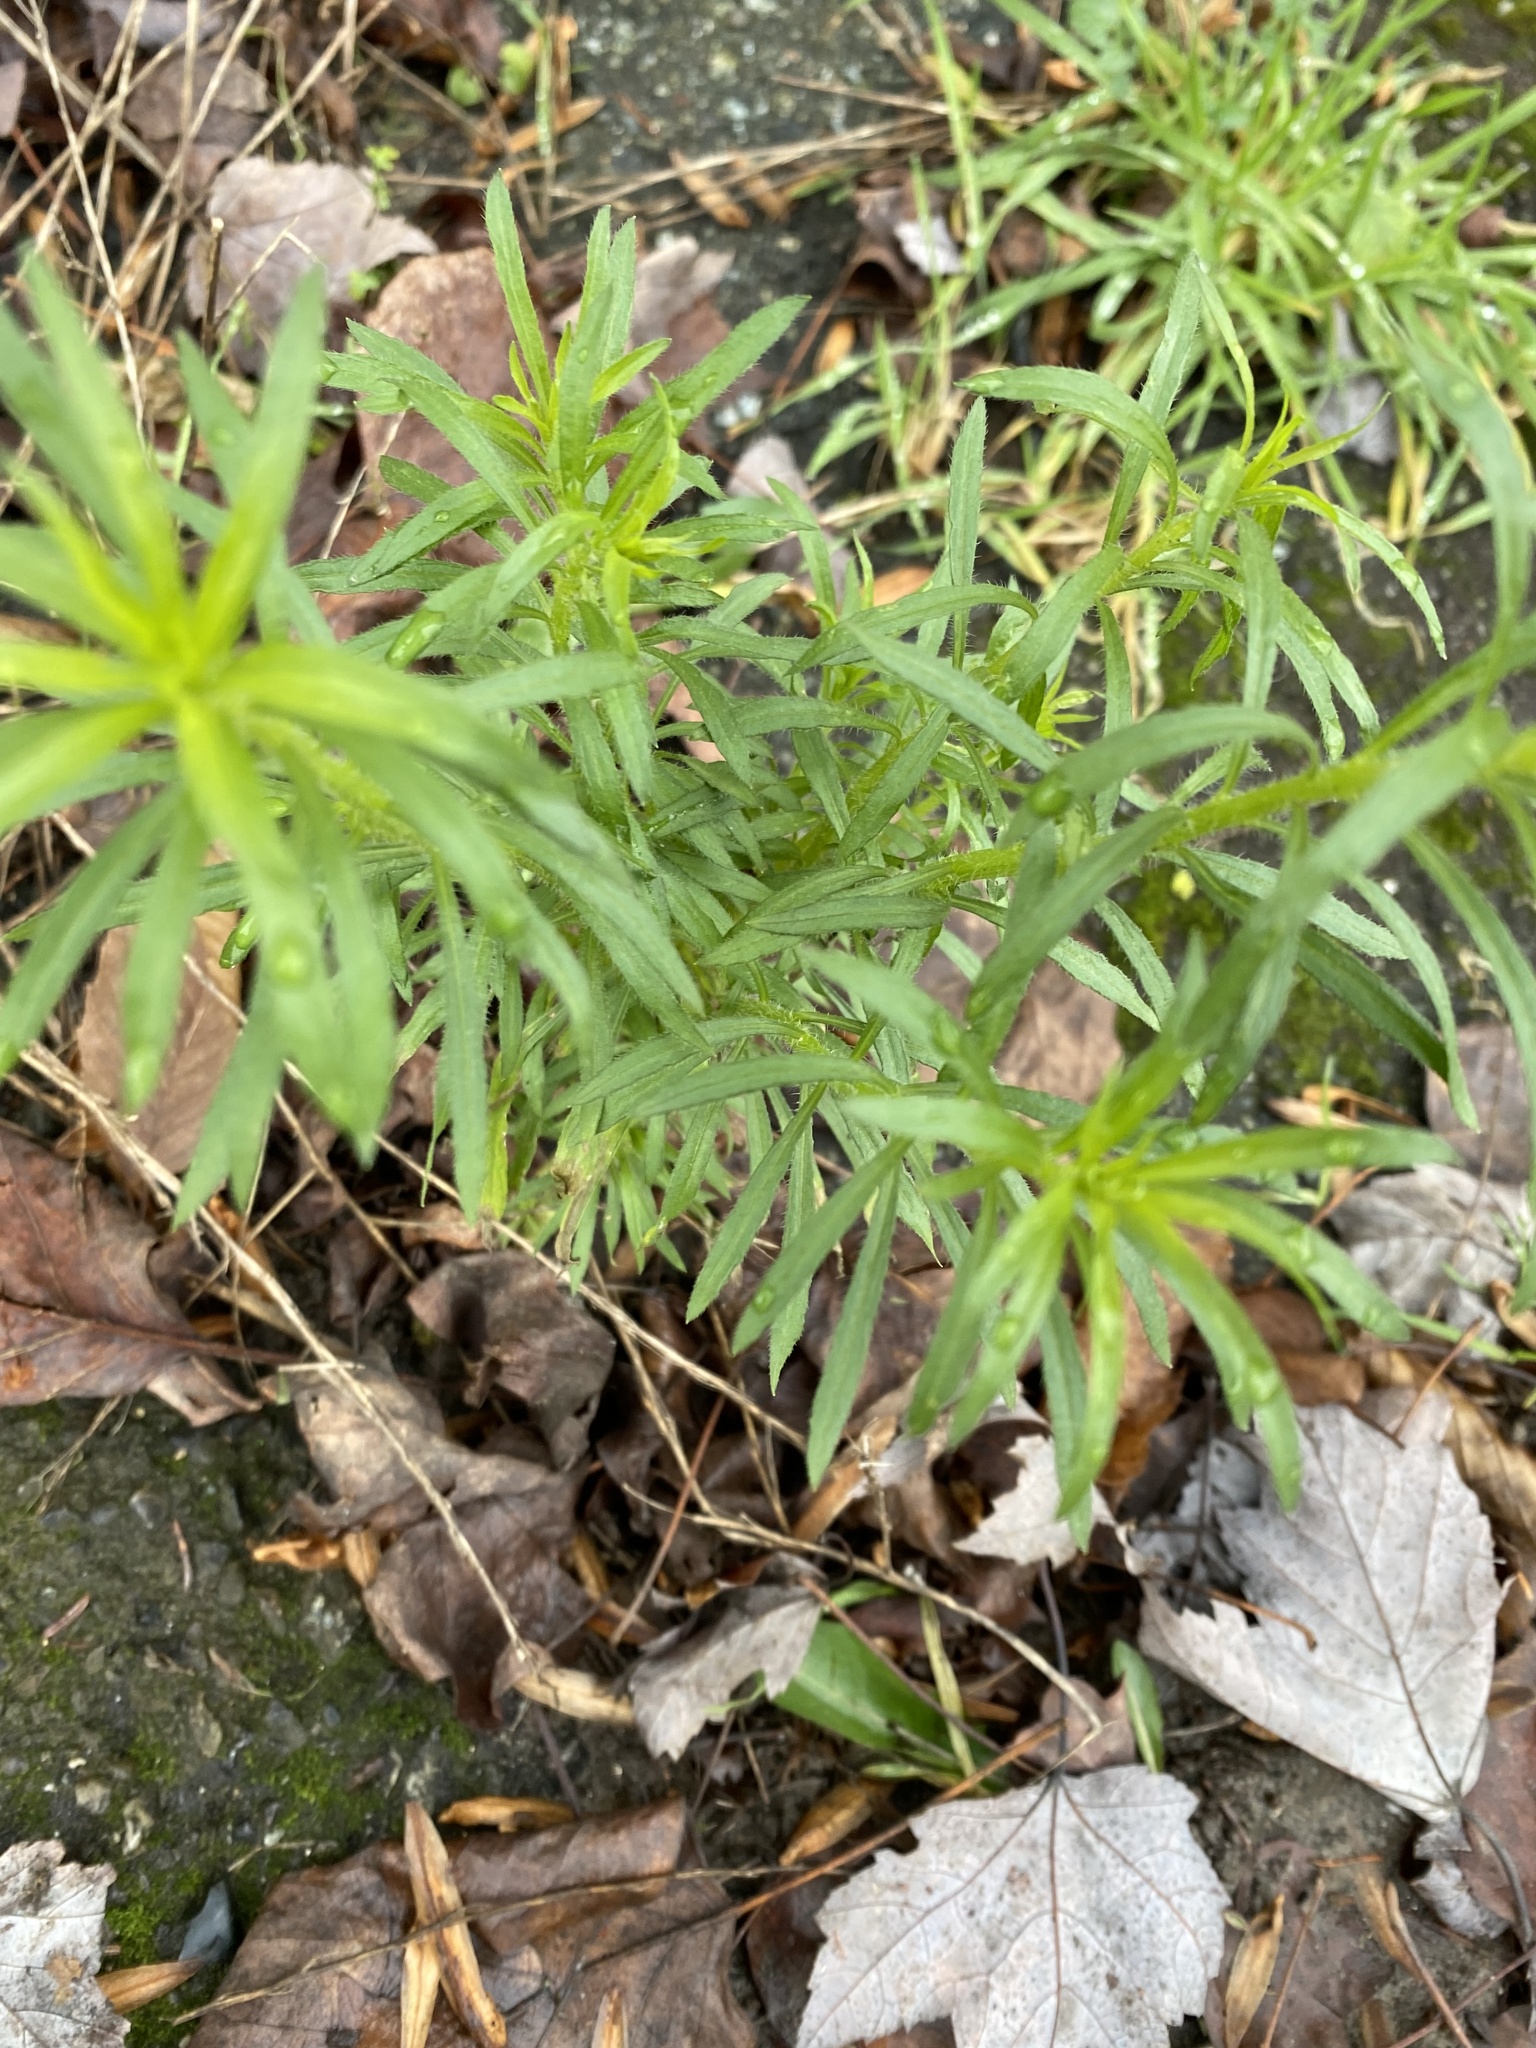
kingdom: Plantae
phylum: Tracheophyta
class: Magnoliopsida
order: Asterales
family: Asteraceae
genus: Erigeron
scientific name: Erigeron canadensis
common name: Canadian fleabane
